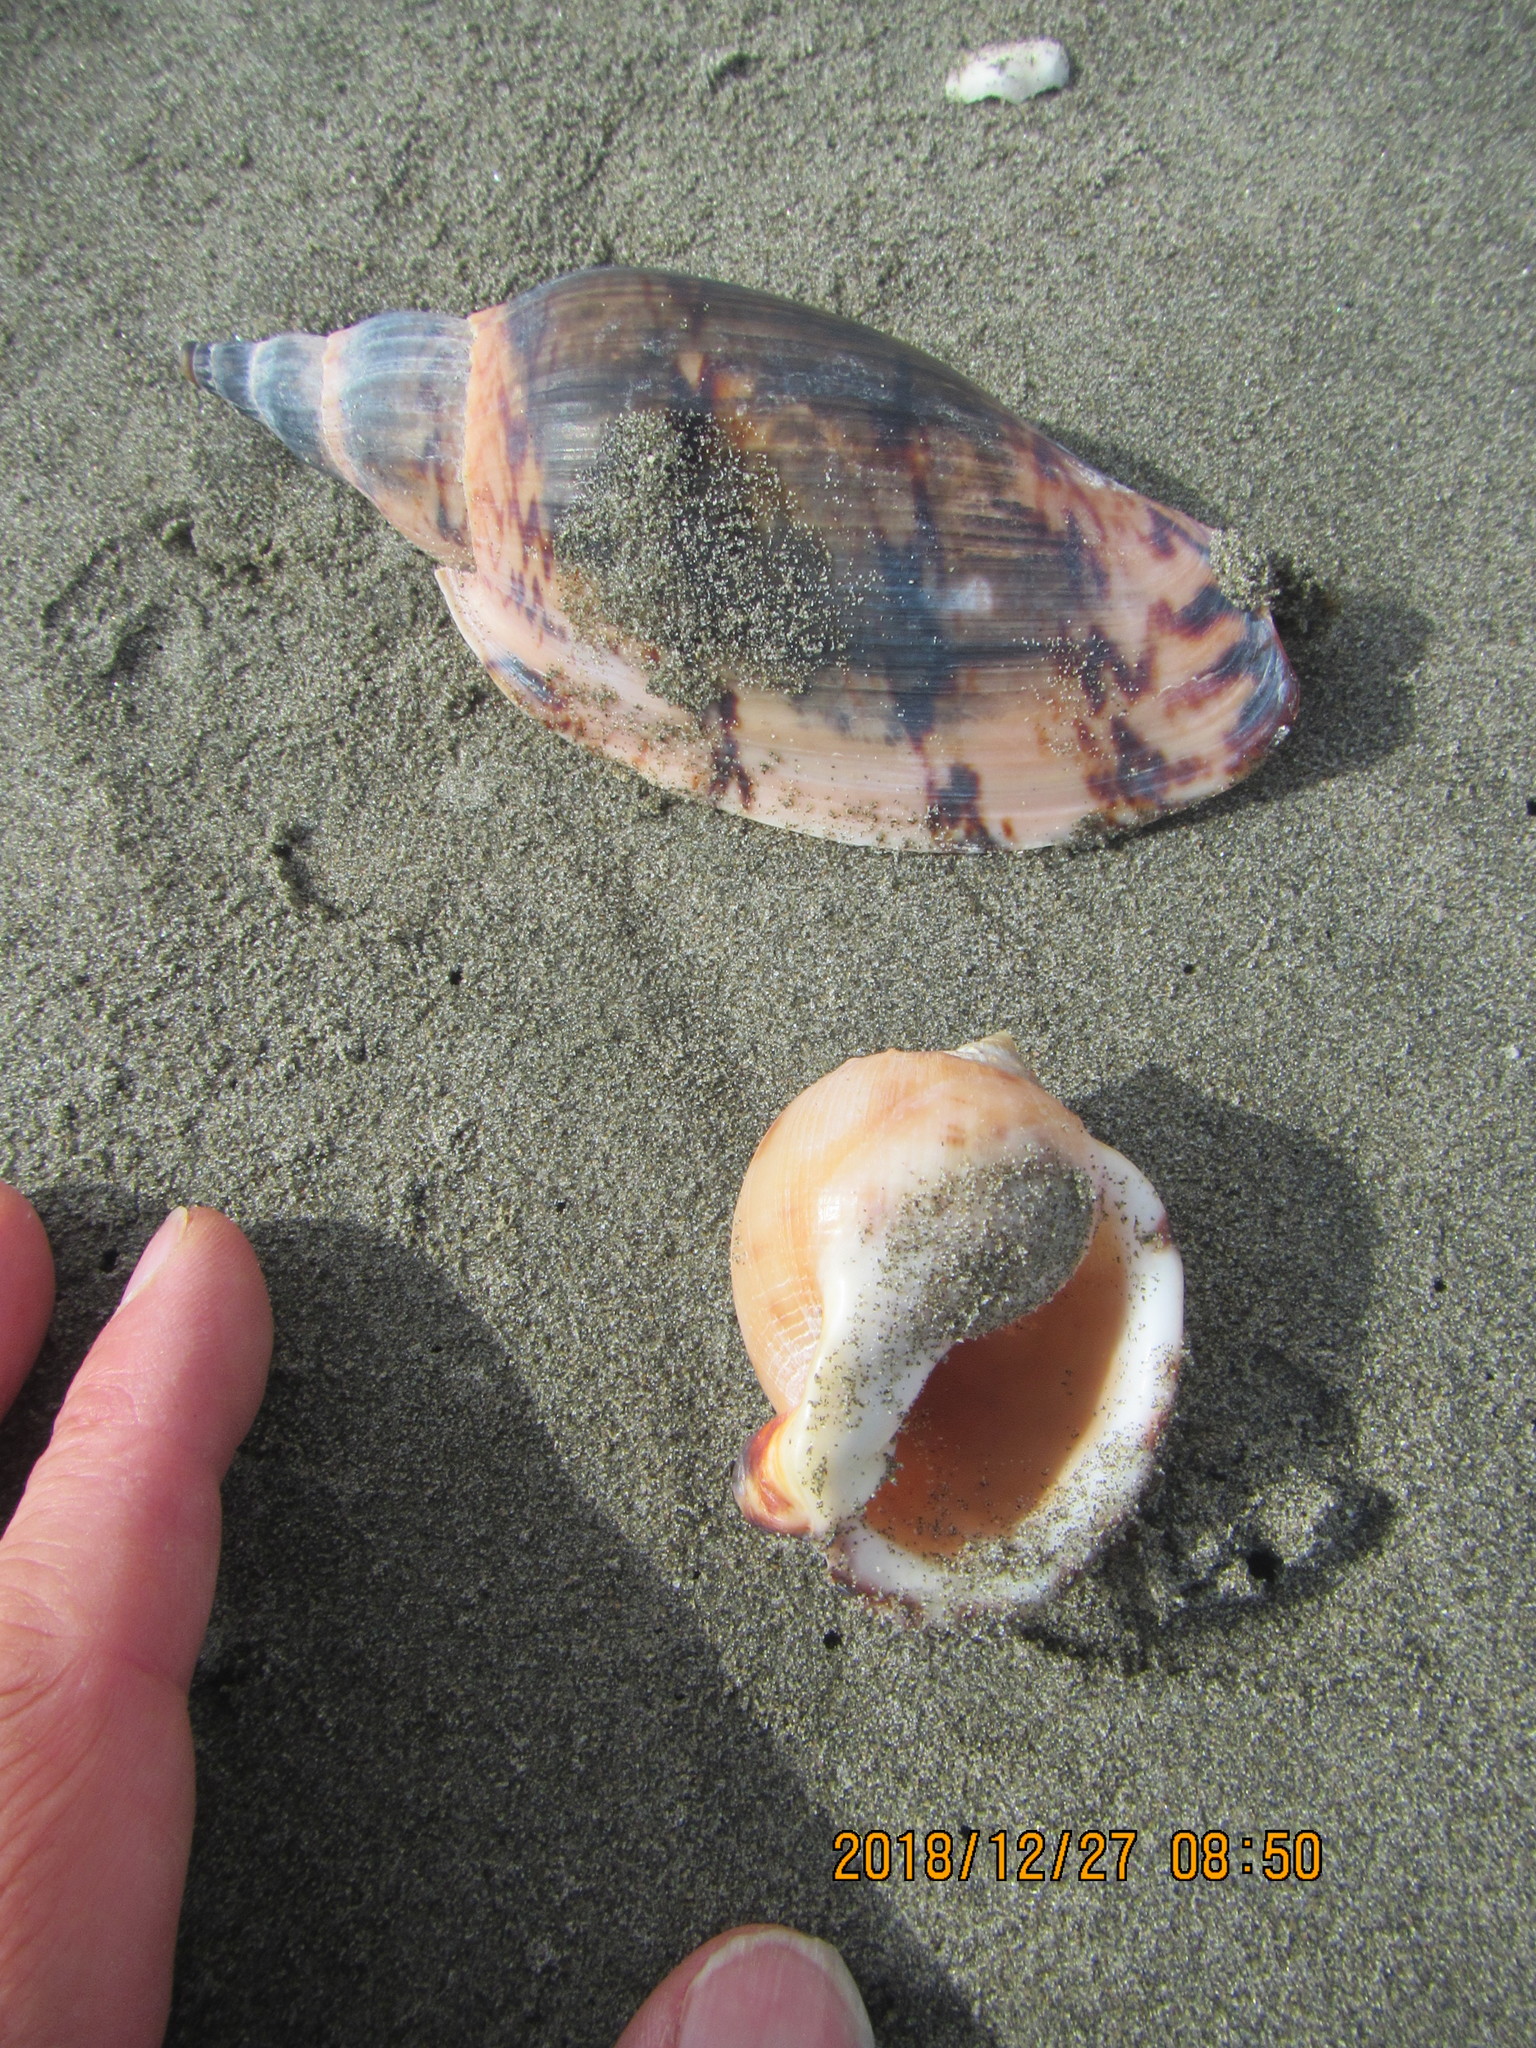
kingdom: Animalia
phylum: Mollusca
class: Gastropoda
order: Neogastropoda
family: Volutidae
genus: Alcithoe
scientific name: Alcithoe arabica
